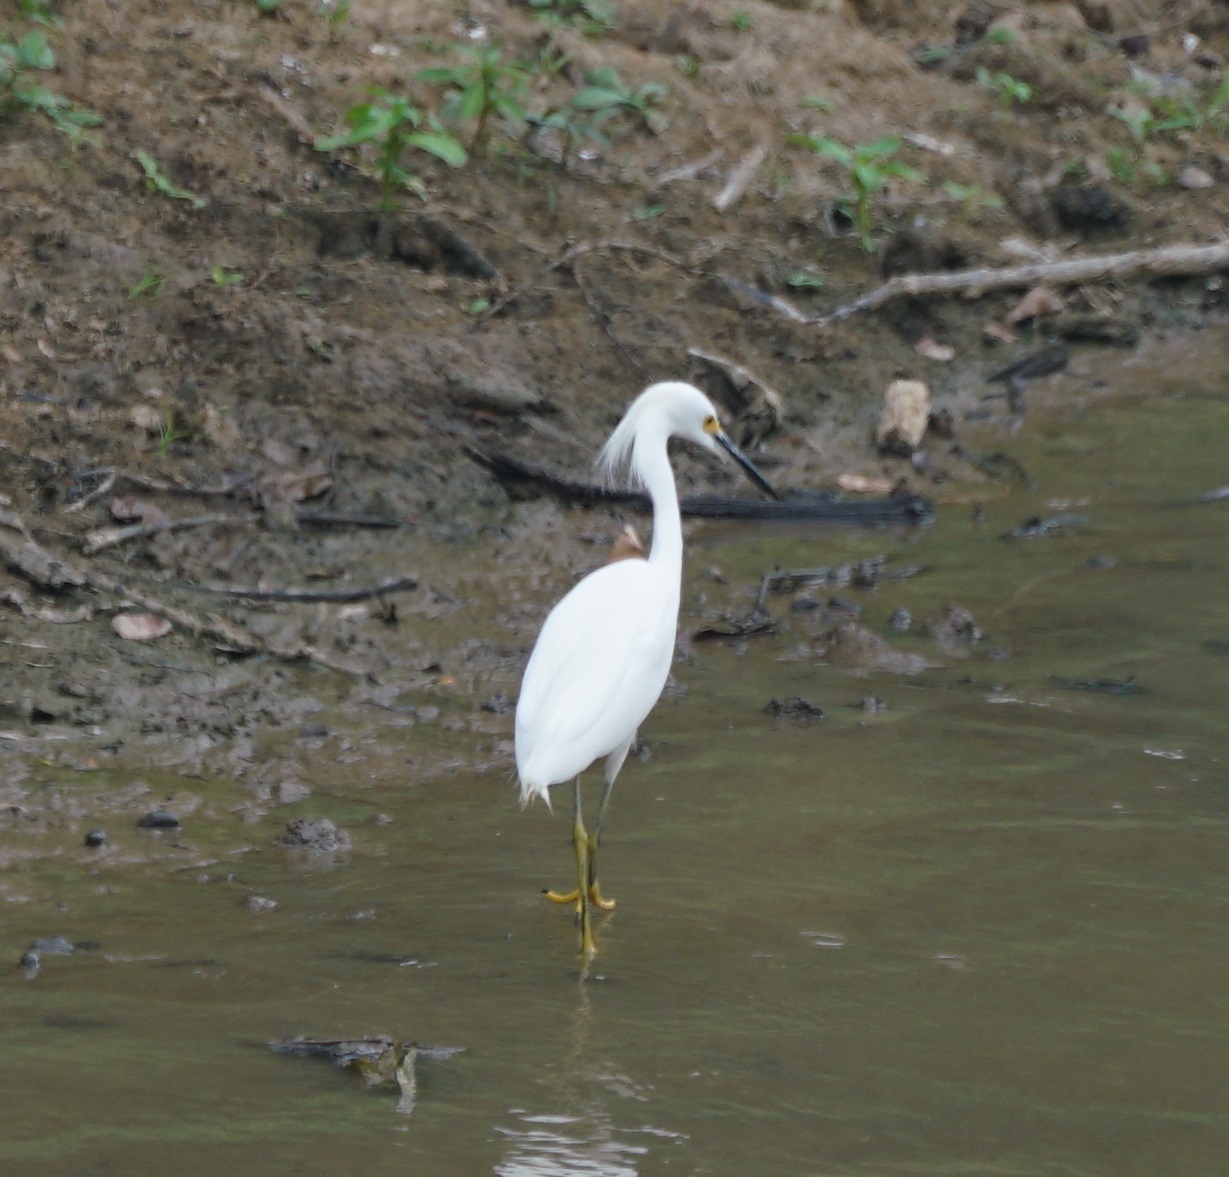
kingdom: Animalia
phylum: Chordata
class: Aves
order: Pelecaniformes
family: Ardeidae
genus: Egretta
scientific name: Egretta thula
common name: Snowy egret
